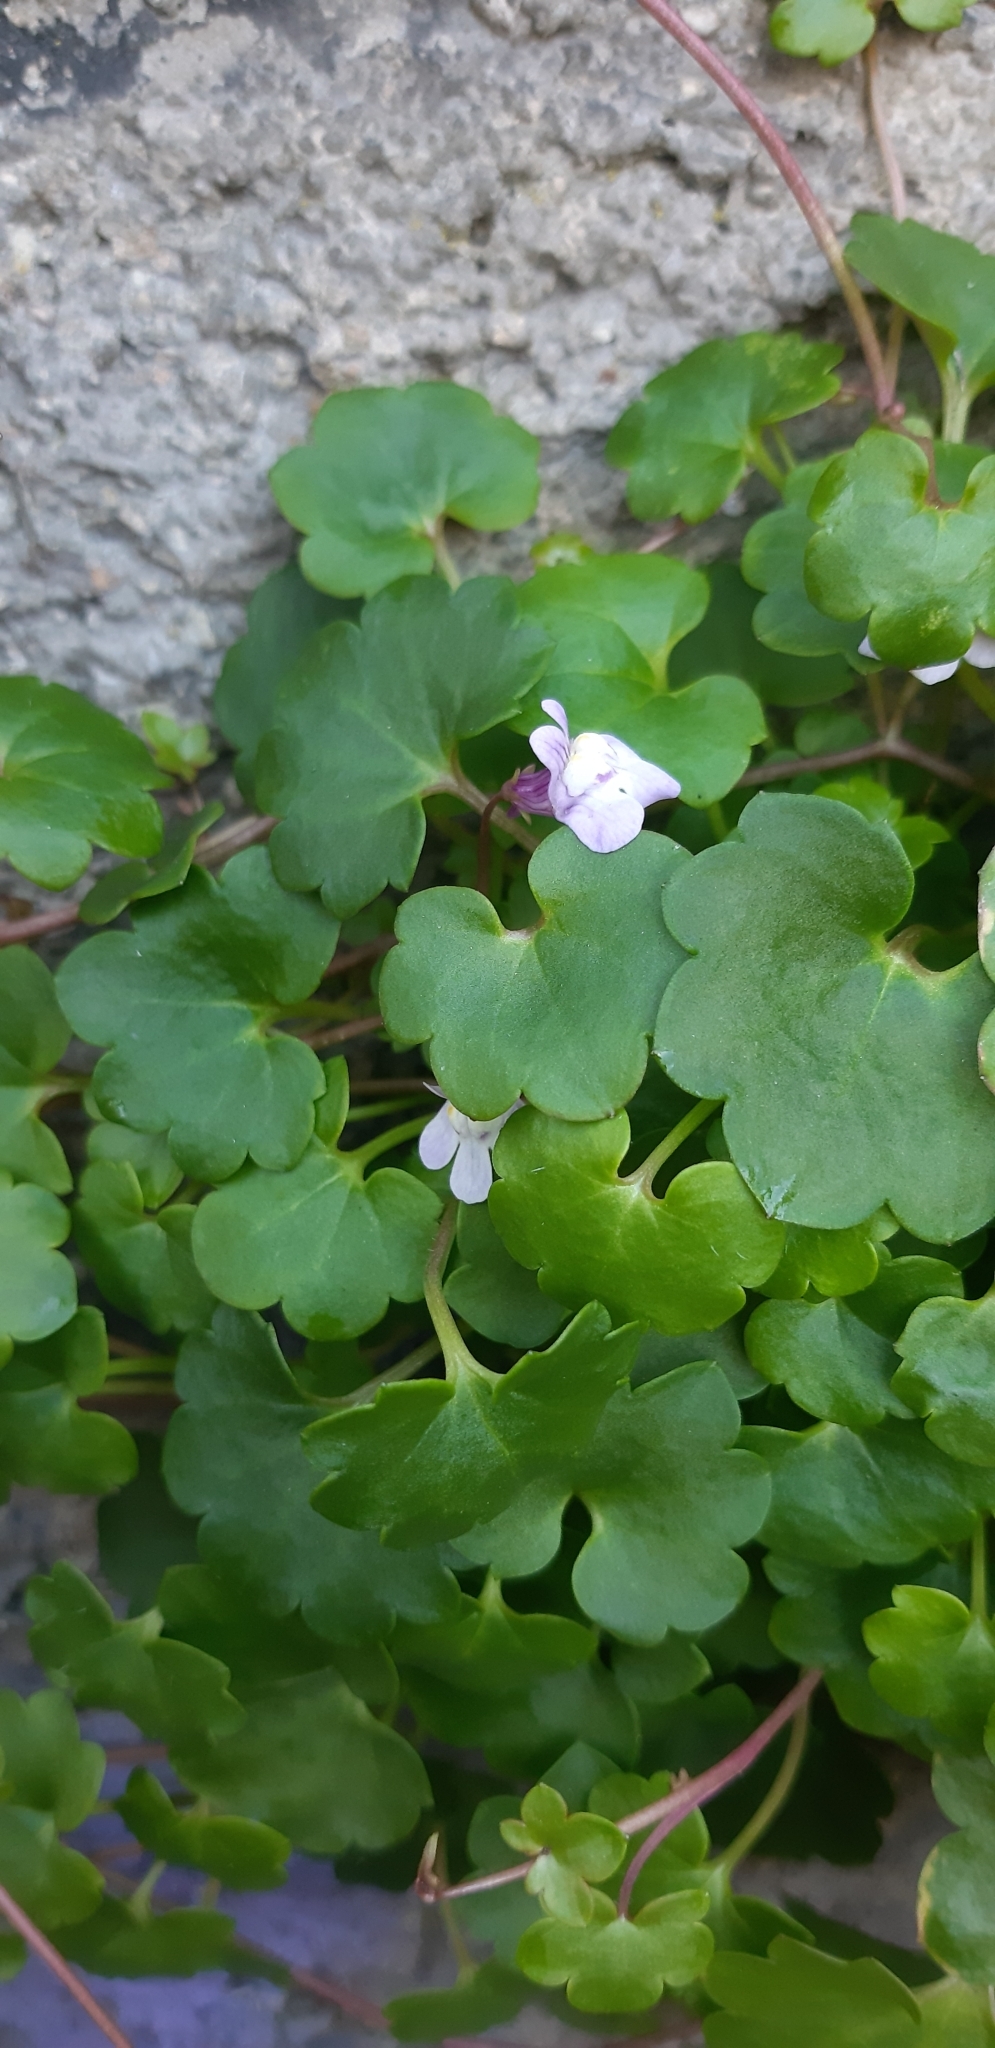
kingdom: Plantae
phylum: Tracheophyta
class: Magnoliopsida
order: Lamiales
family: Plantaginaceae
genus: Cymbalaria
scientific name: Cymbalaria muralis
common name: Ivy-leaved toadflax
